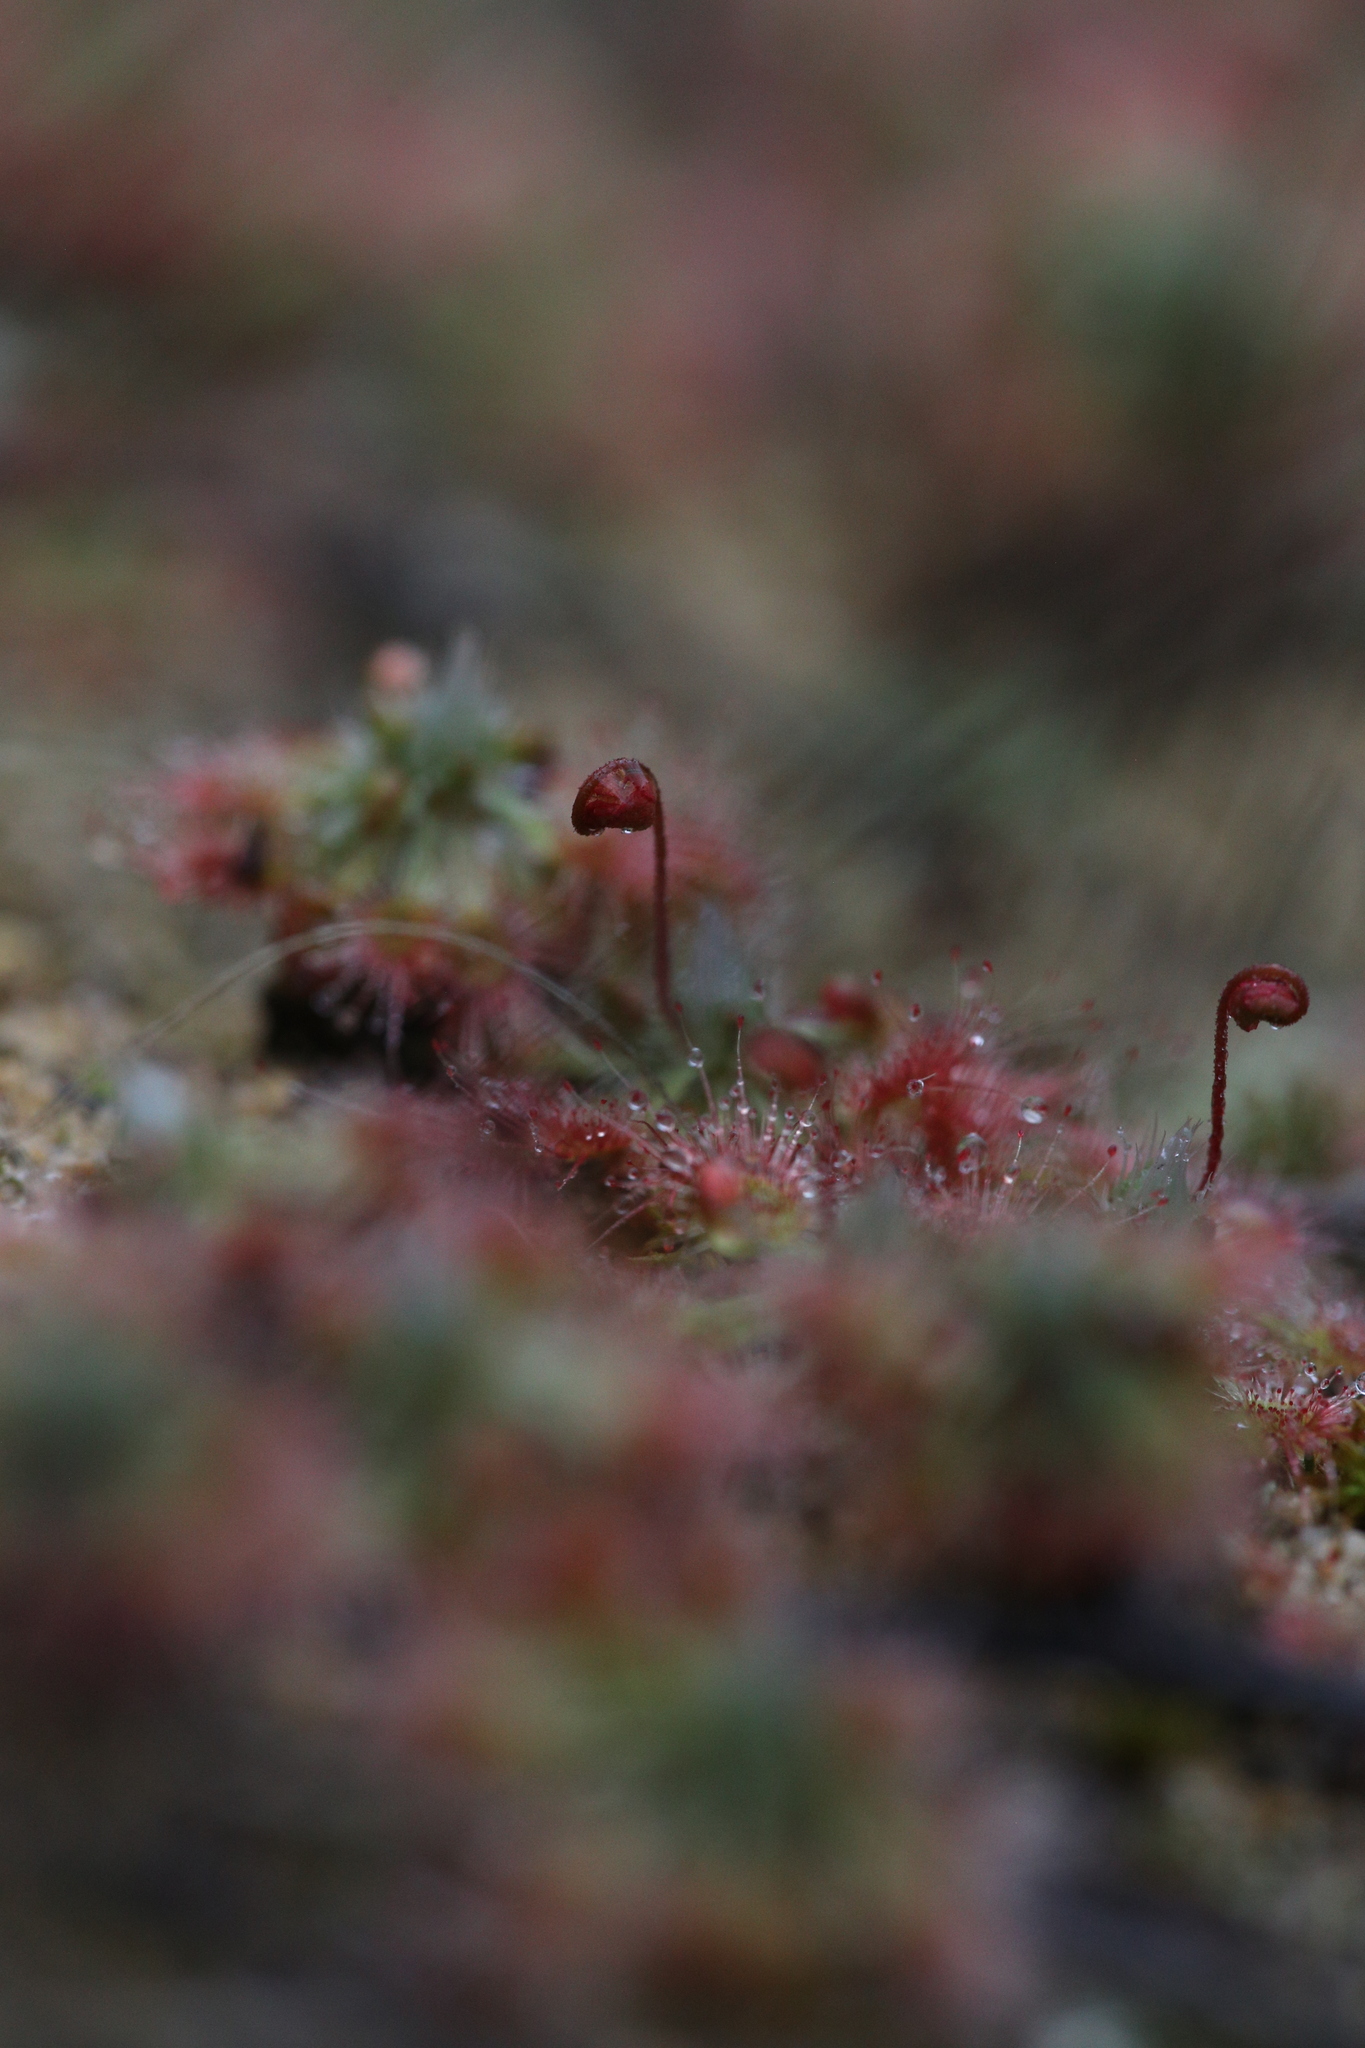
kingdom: Plantae
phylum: Tracheophyta
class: Magnoliopsida
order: Caryophyllales
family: Droseraceae
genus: Drosera
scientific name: Drosera spilos
